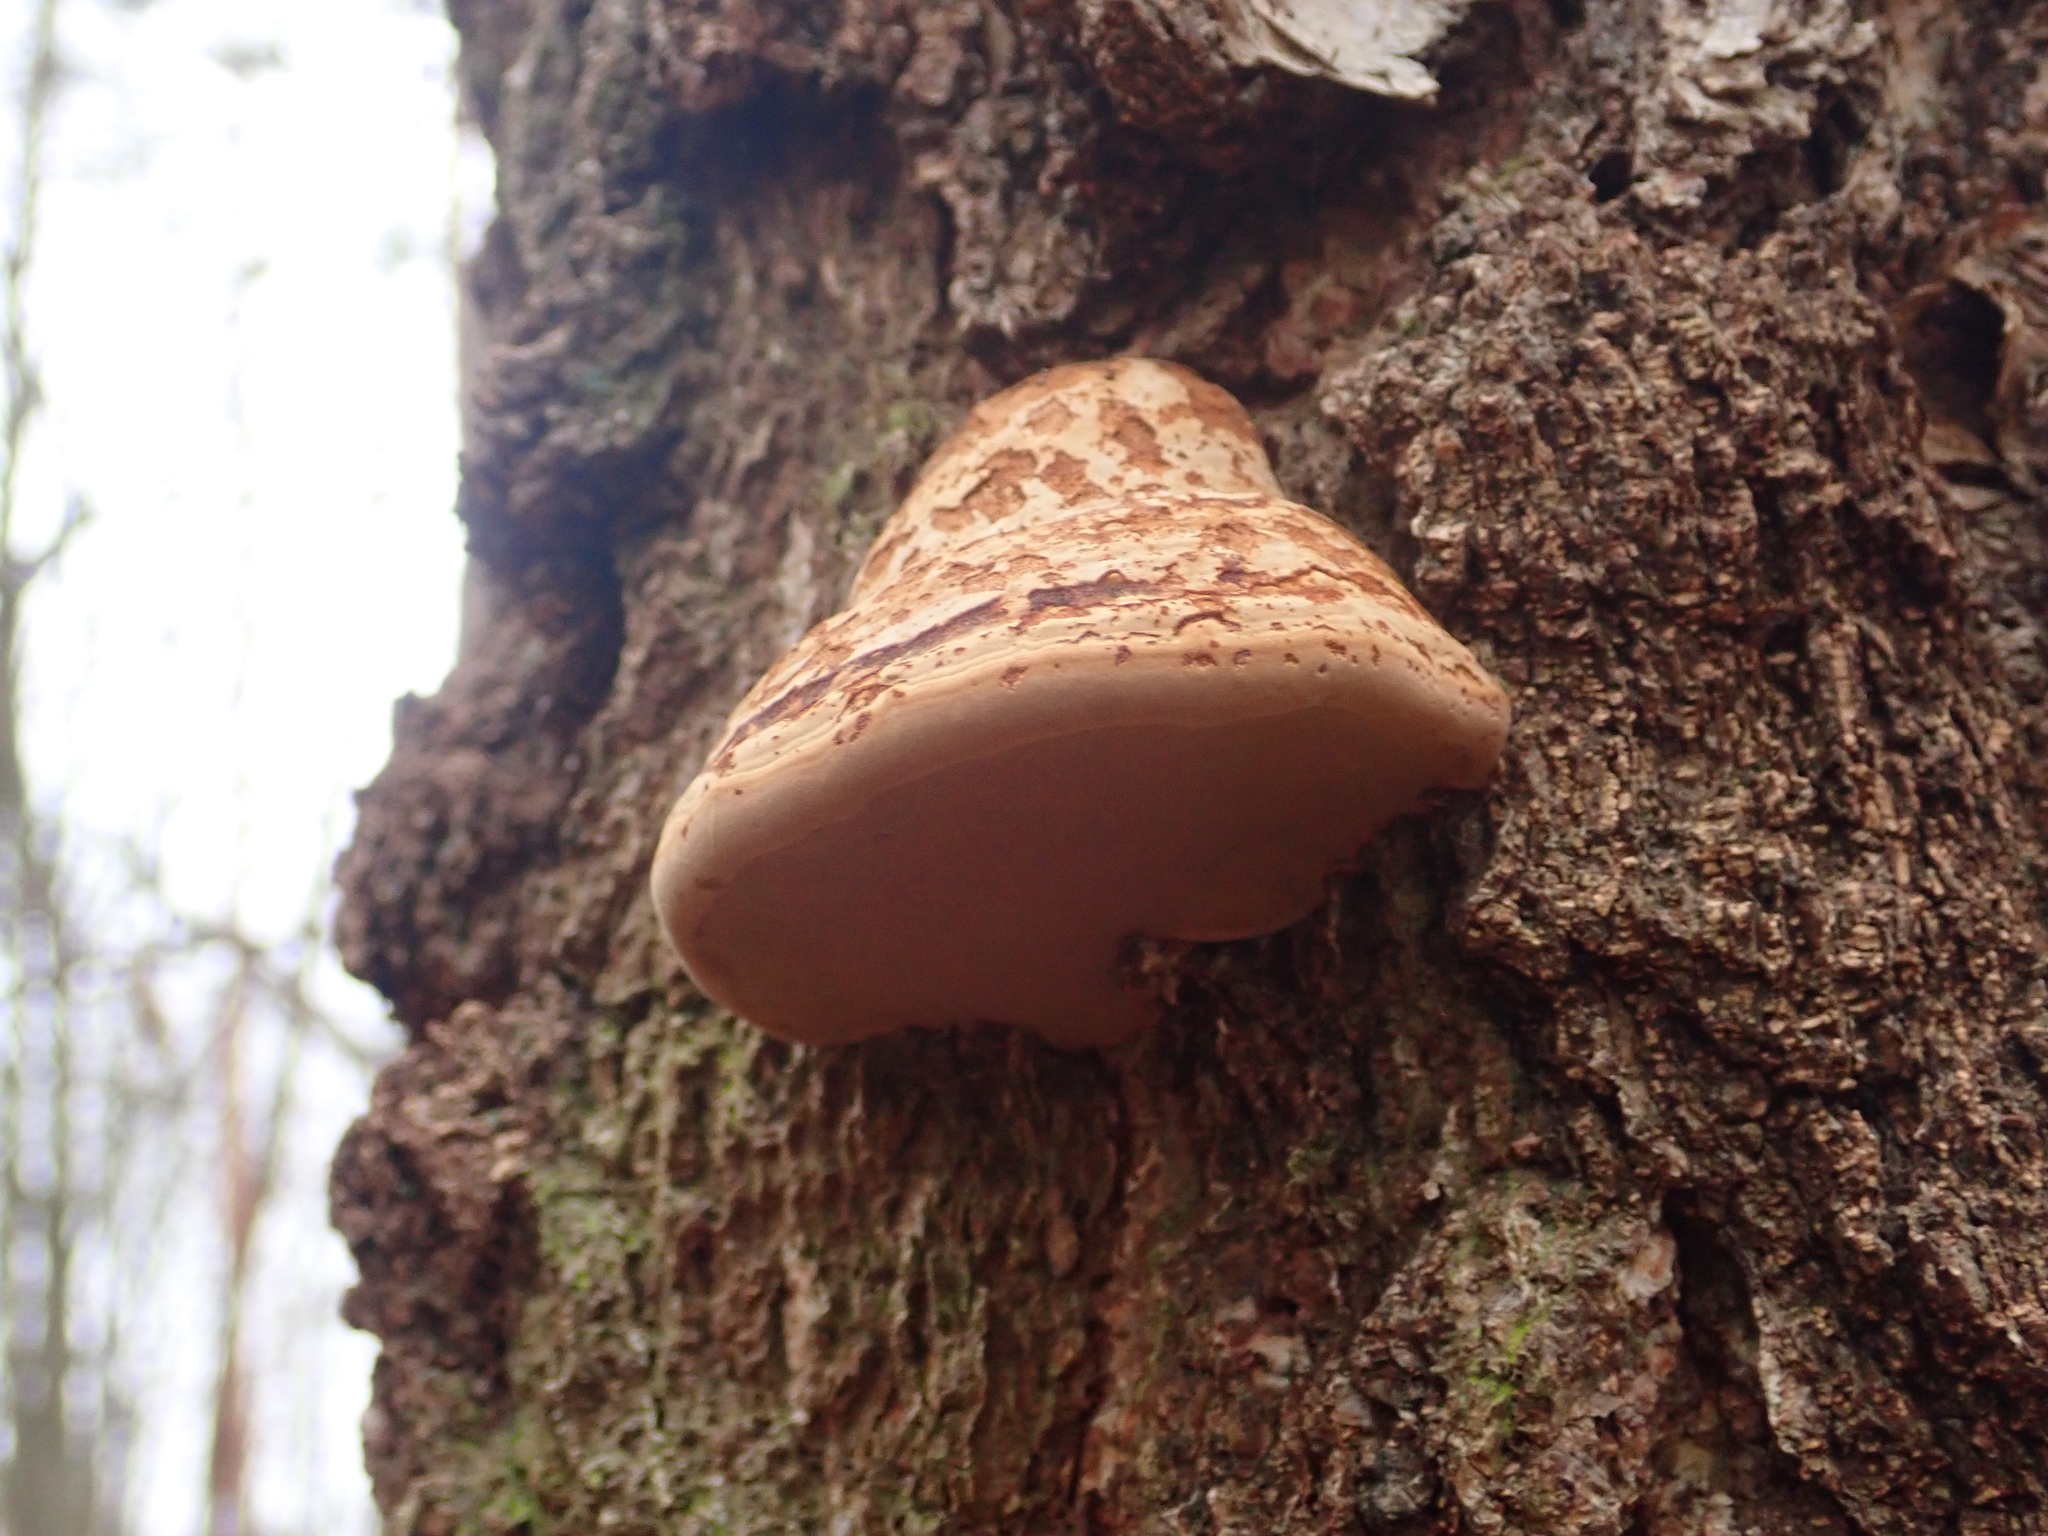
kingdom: Fungi
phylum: Basidiomycota
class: Agaricomycetes
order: Polyporales
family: Polyporaceae
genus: Fomes
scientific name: Fomes fomentarius
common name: Hoof fungus
